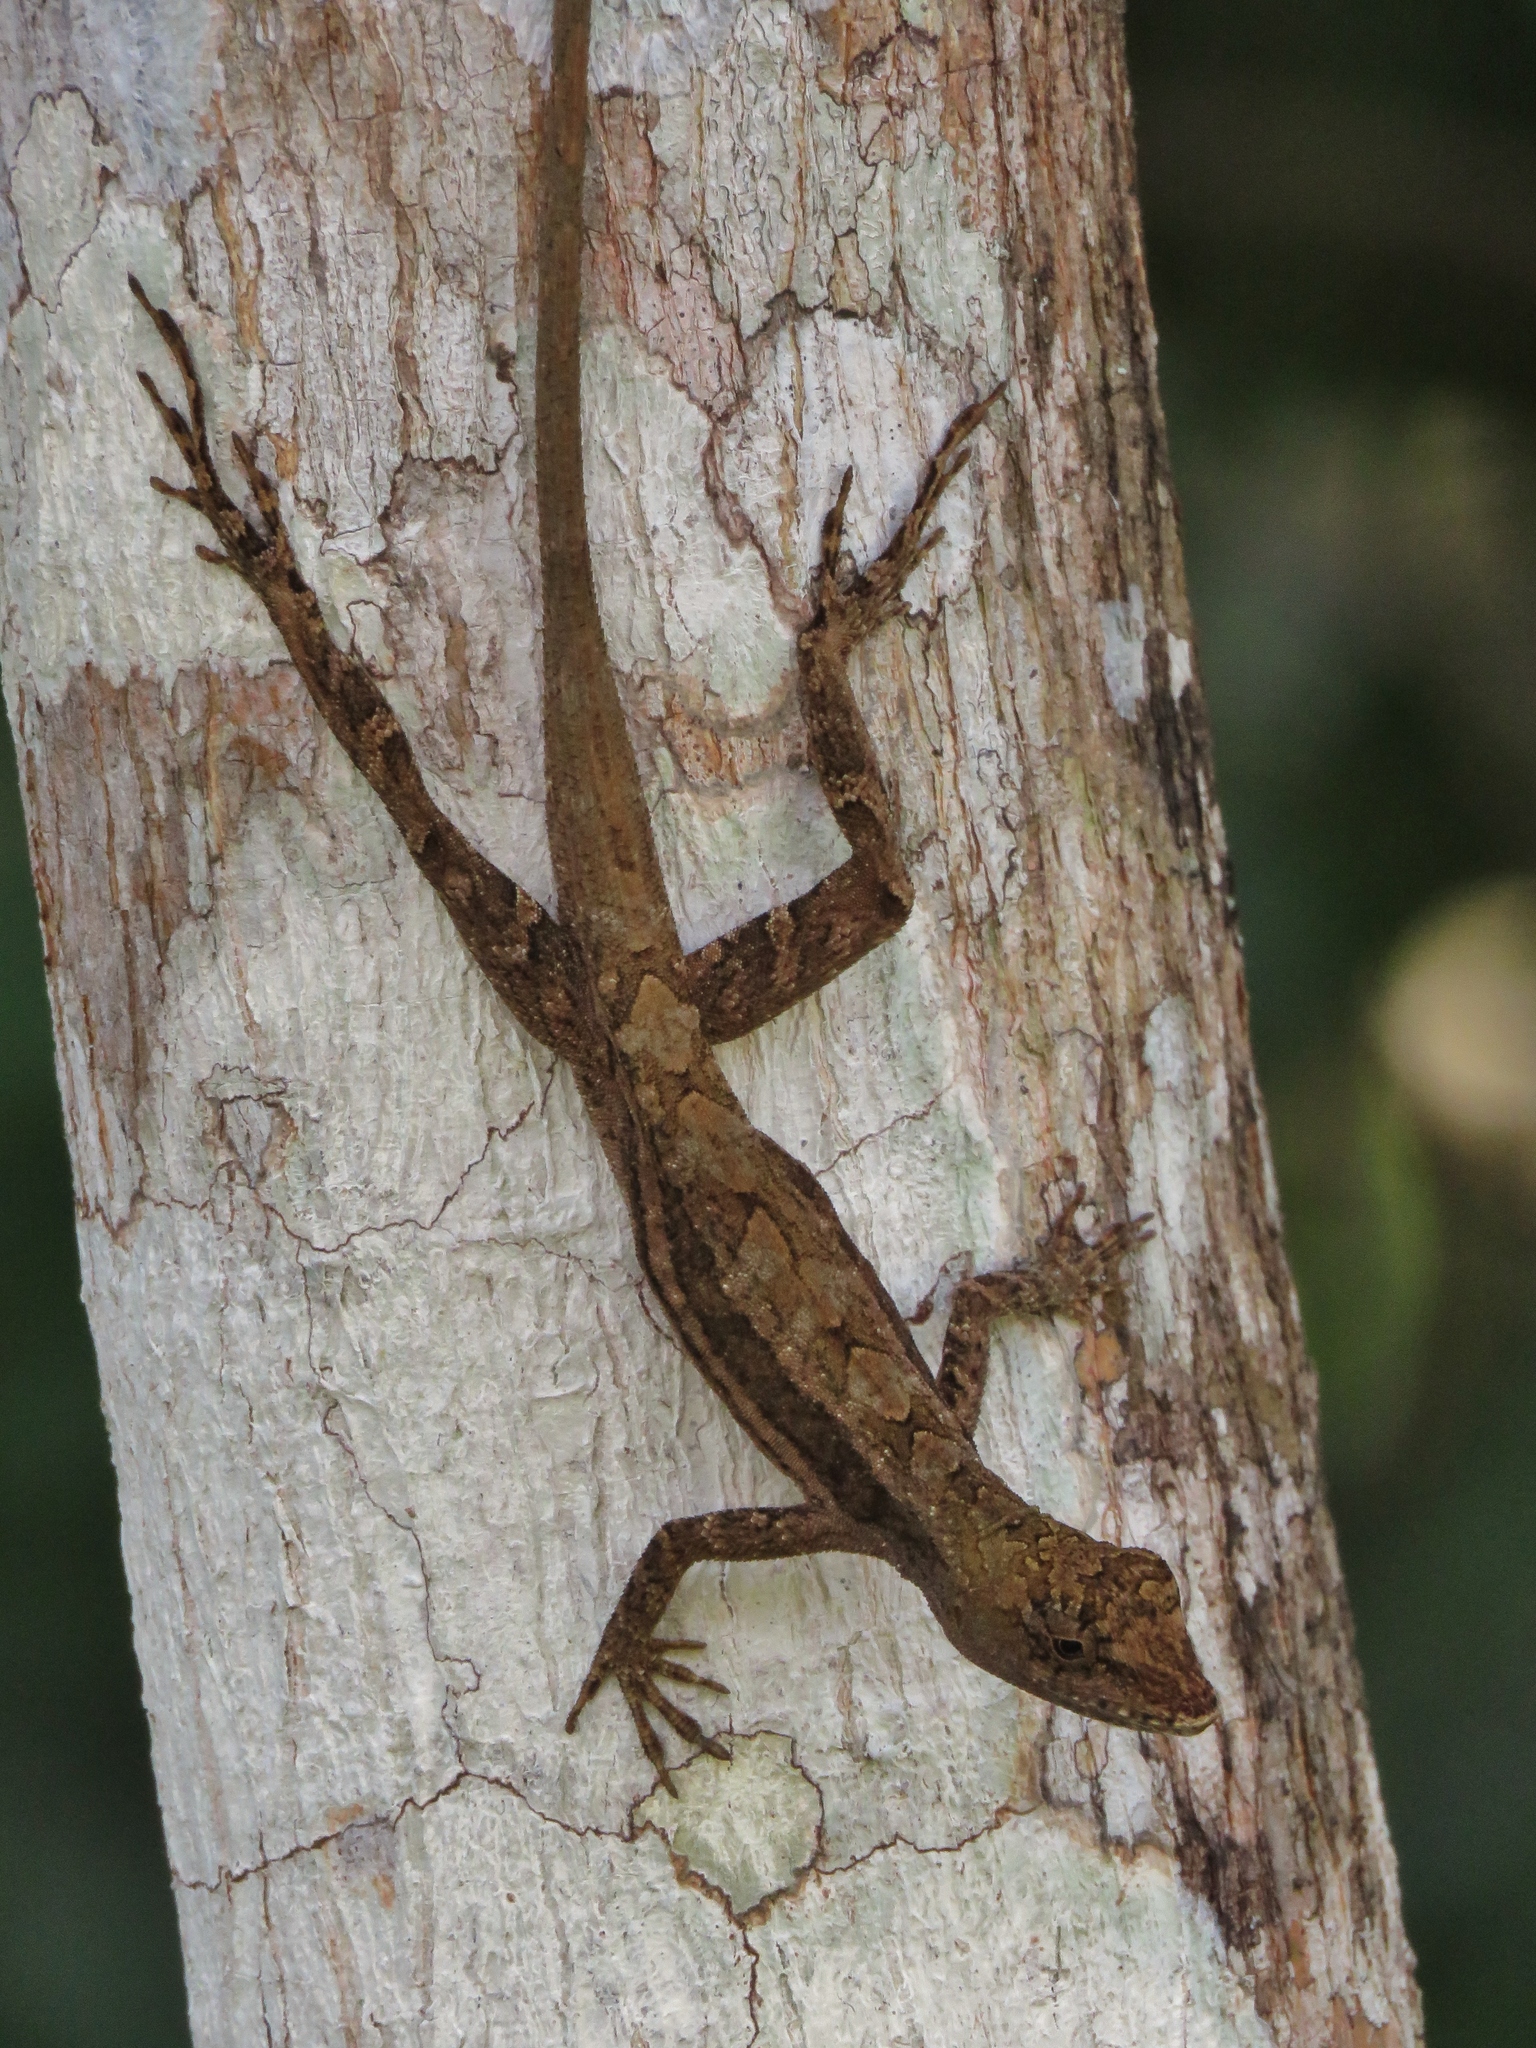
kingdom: Animalia
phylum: Chordata
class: Squamata
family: Dactyloidae
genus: Anolis
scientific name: Anolis sagrei
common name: Brown anole
